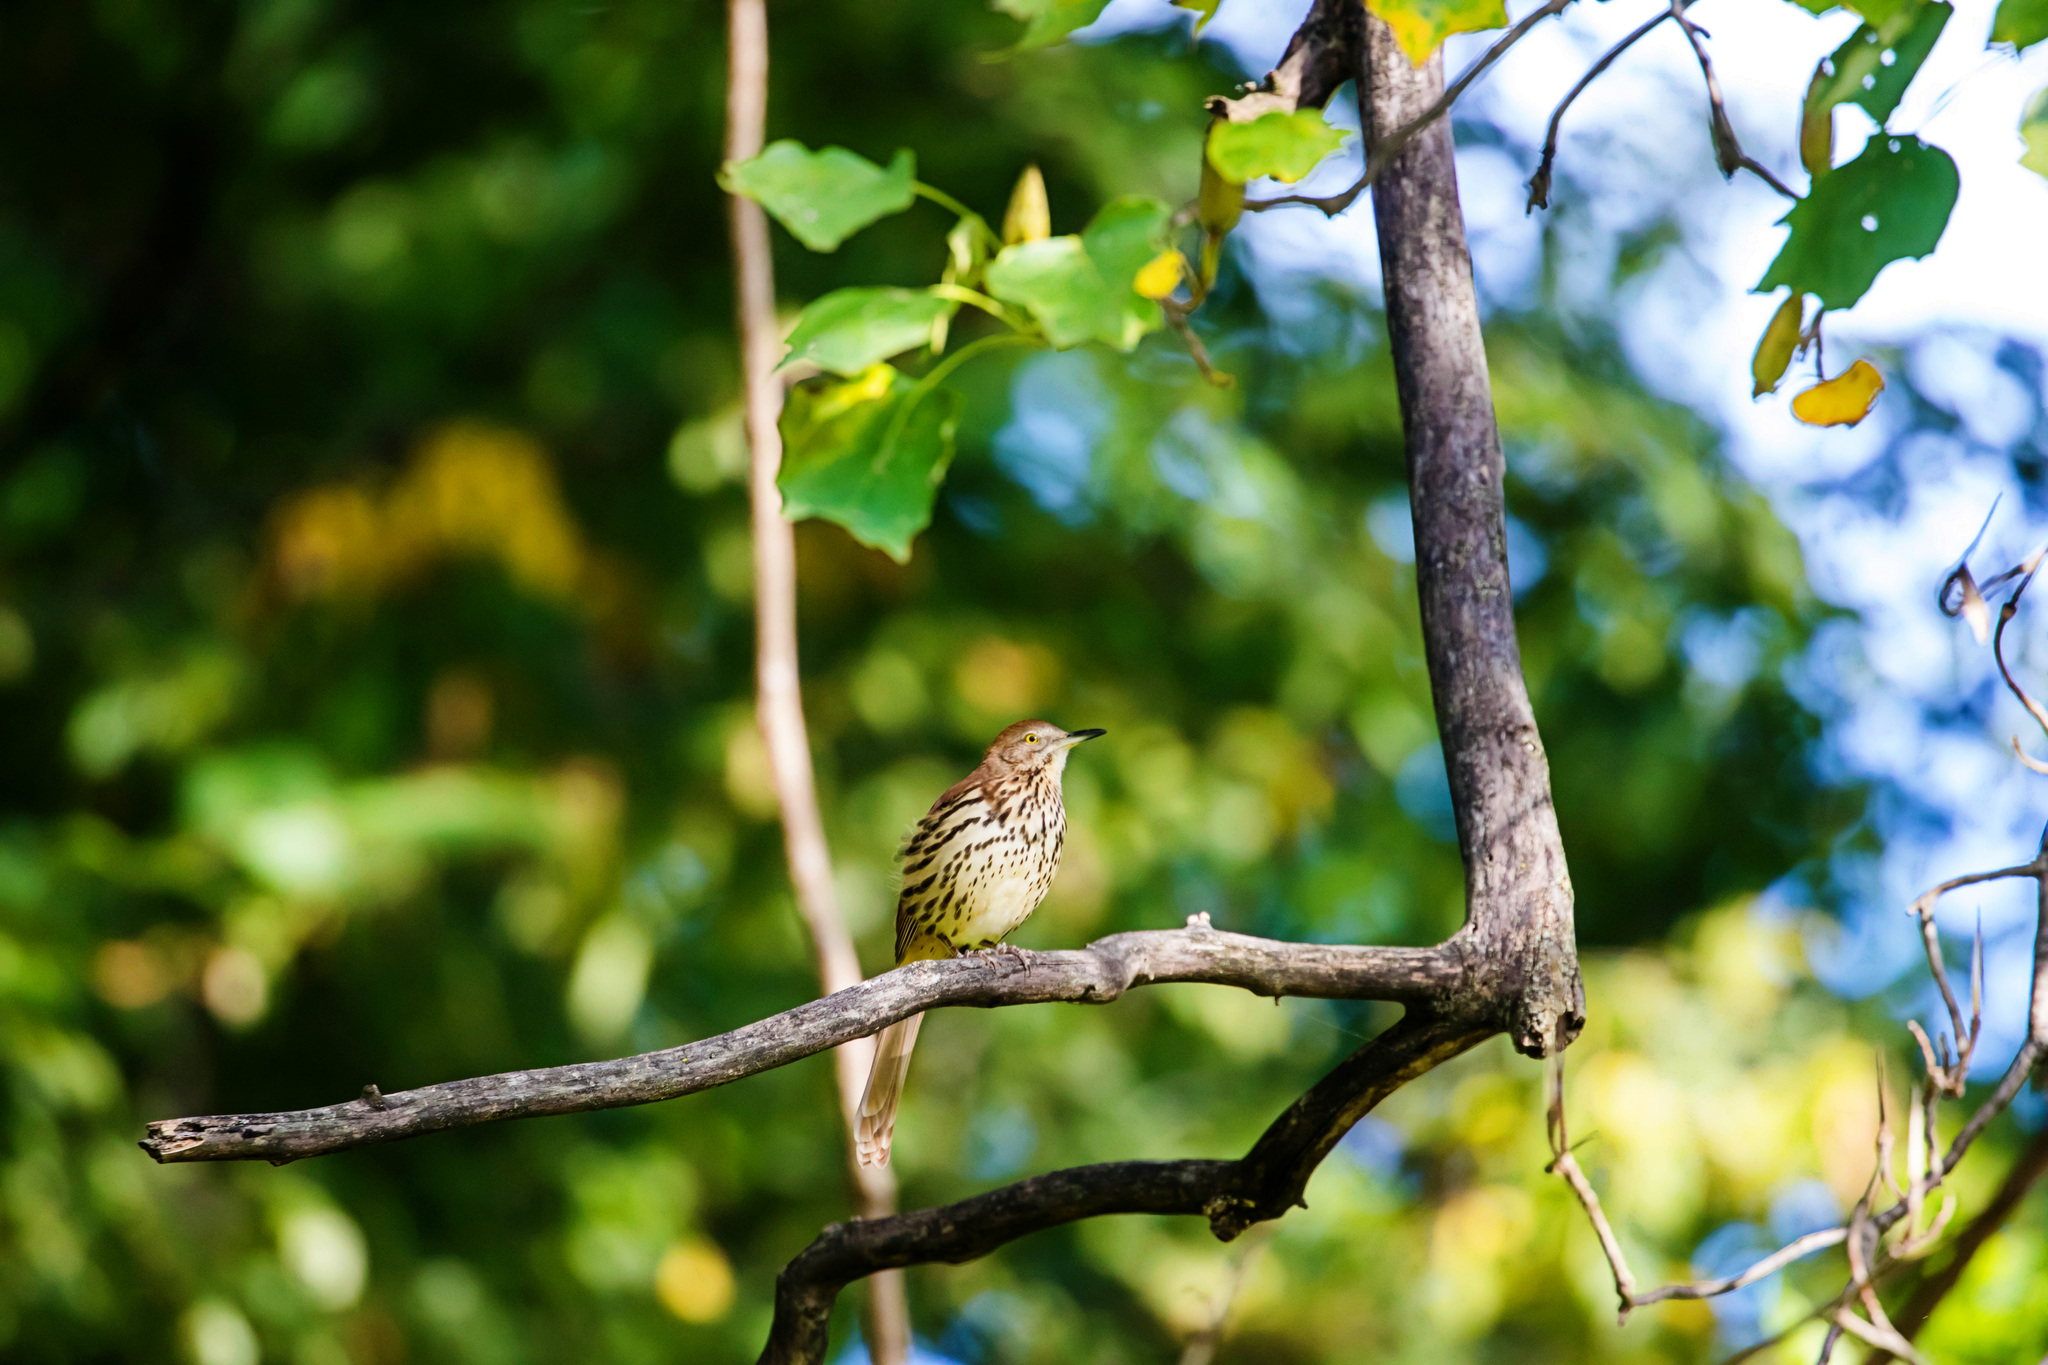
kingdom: Animalia
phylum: Chordata
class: Aves
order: Passeriformes
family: Mimidae
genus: Toxostoma
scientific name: Toxostoma rufum
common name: Brown thrasher
